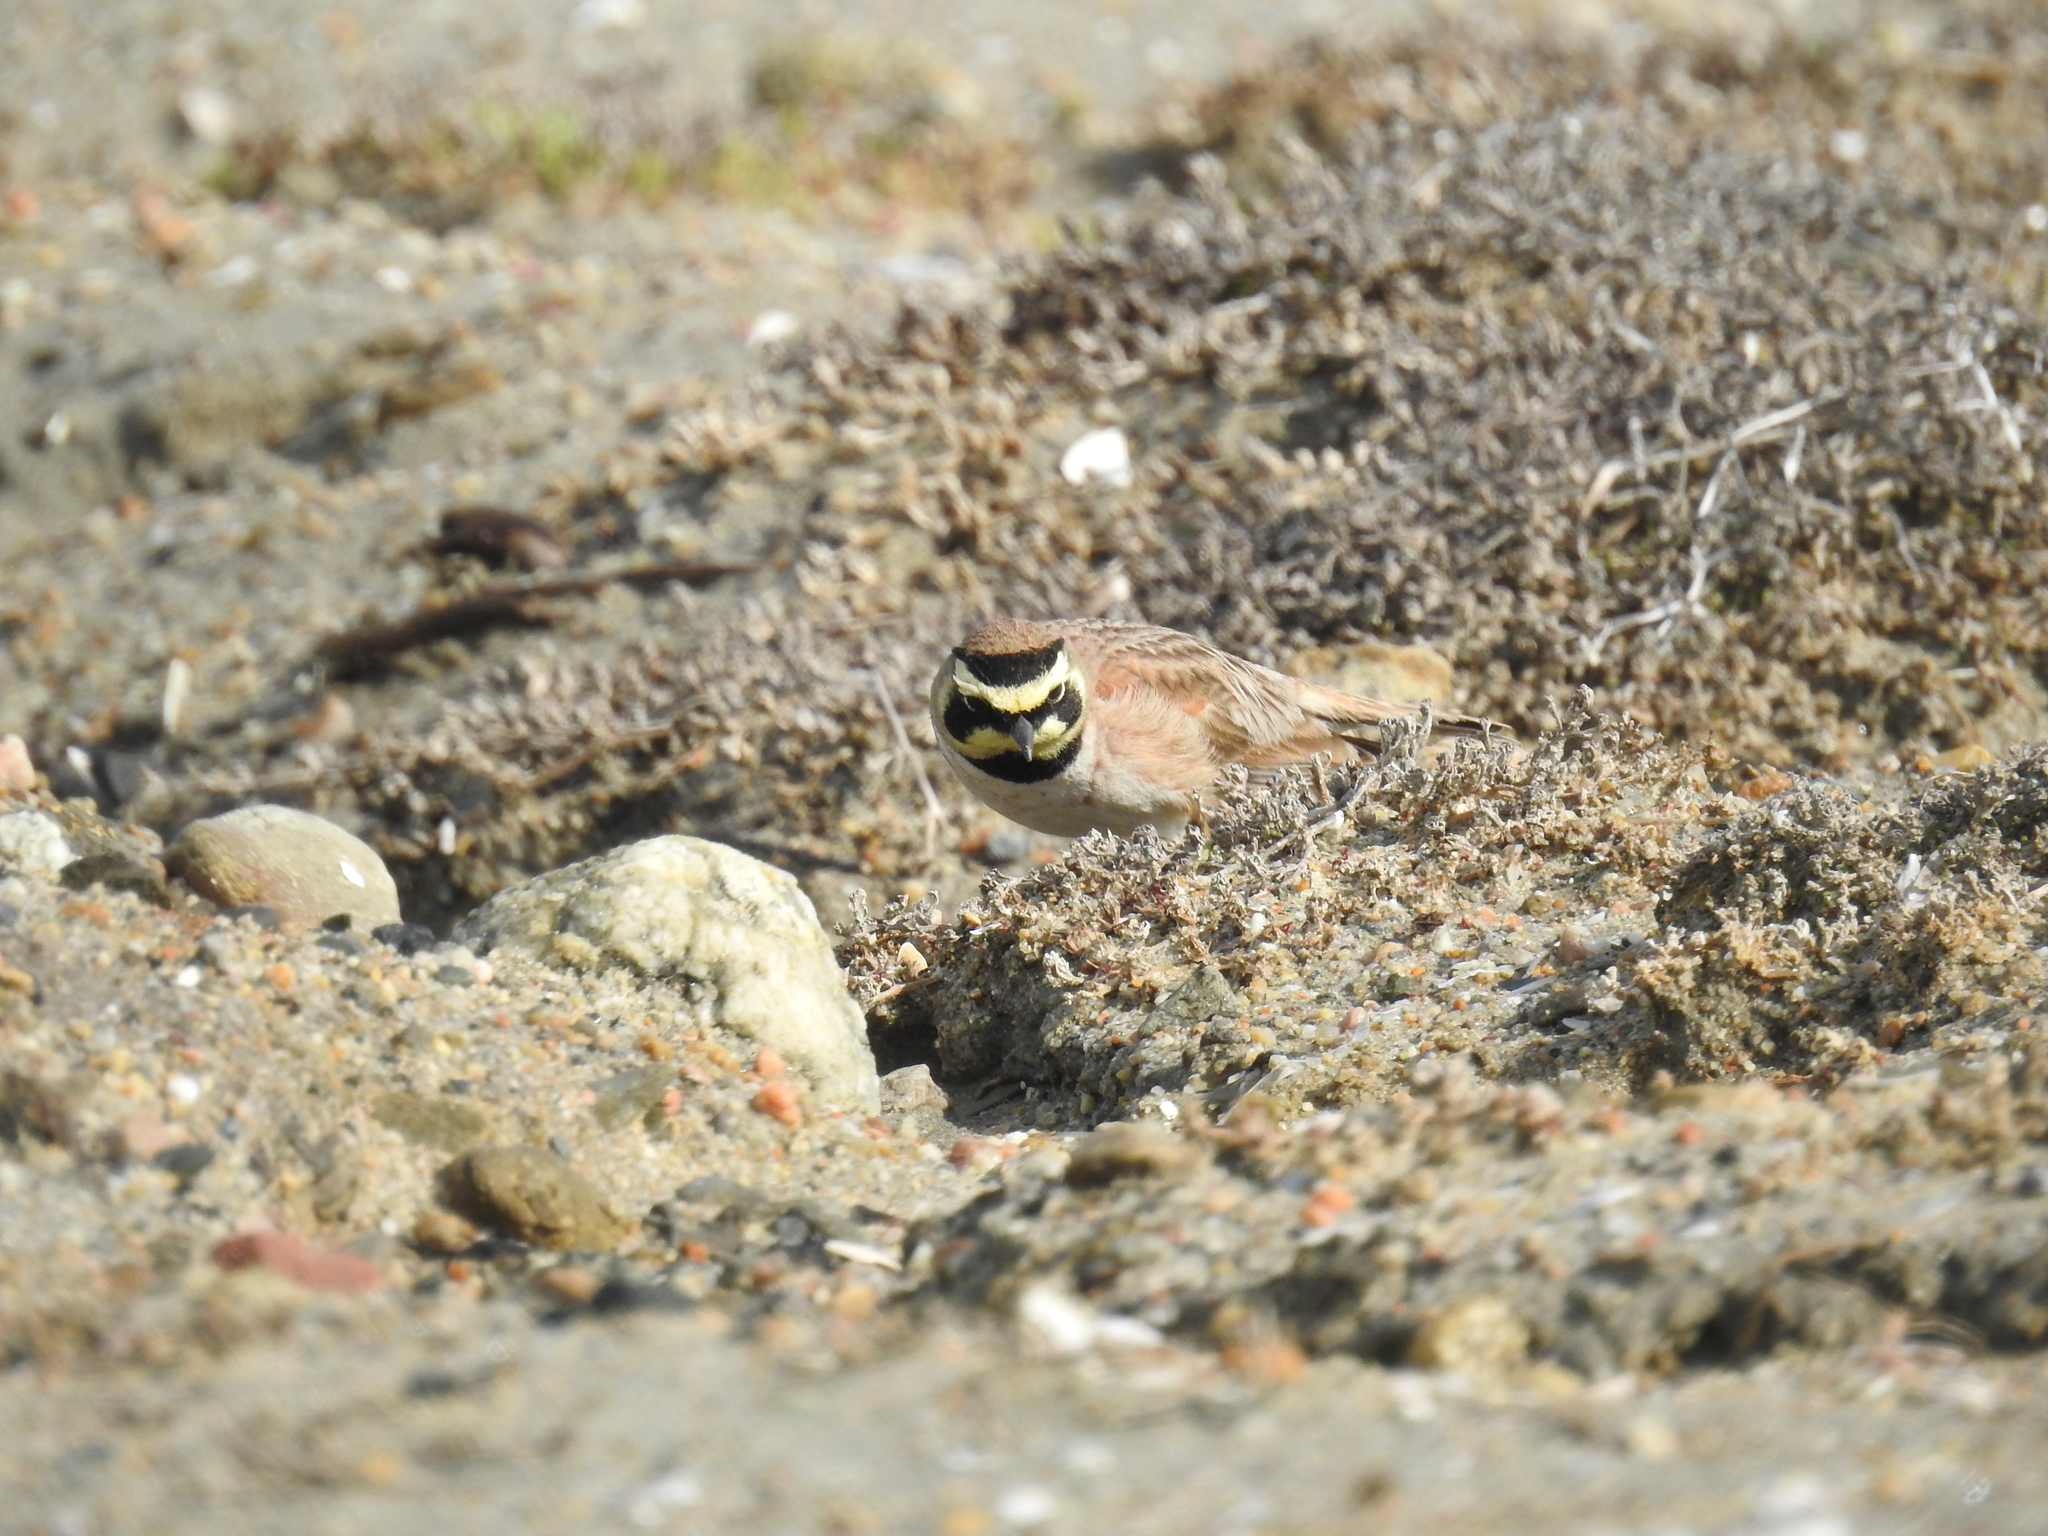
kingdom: Animalia
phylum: Chordata
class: Aves
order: Passeriformes
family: Alaudidae
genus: Eremophila
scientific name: Eremophila alpestris
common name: Horned lark
